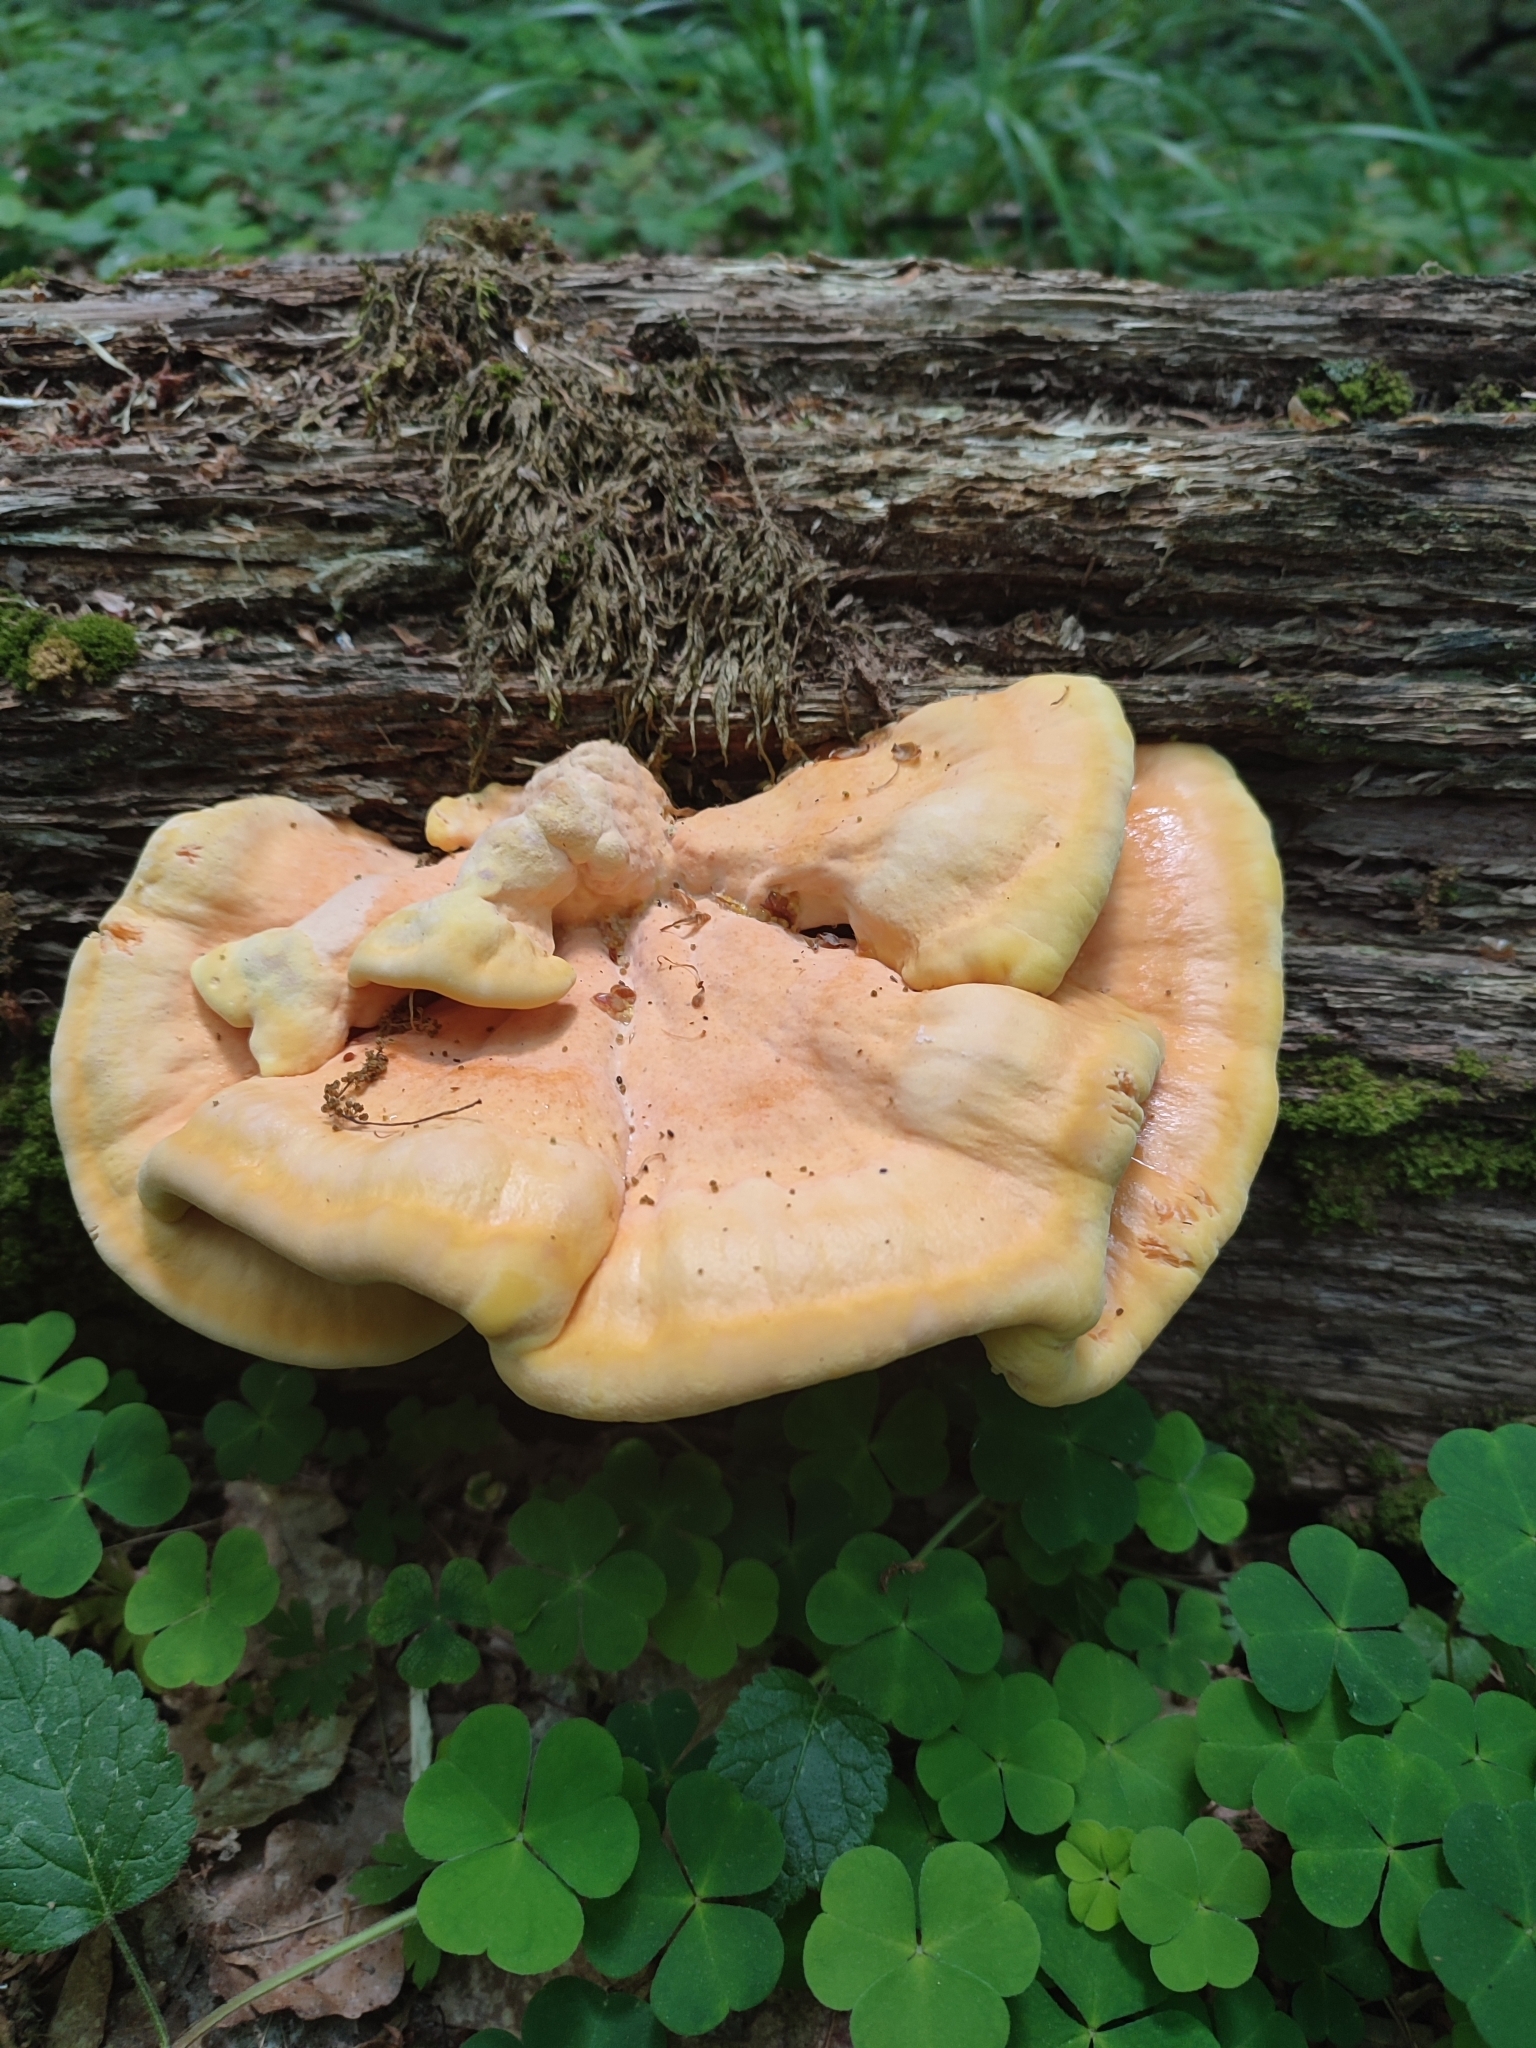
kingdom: Fungi
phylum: Basidiomycota
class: Agaricomycetes
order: Polyporales
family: Laetiporaceae
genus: Laetiporus
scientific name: Laetiporus sulphureus
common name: Chicken of the woods
